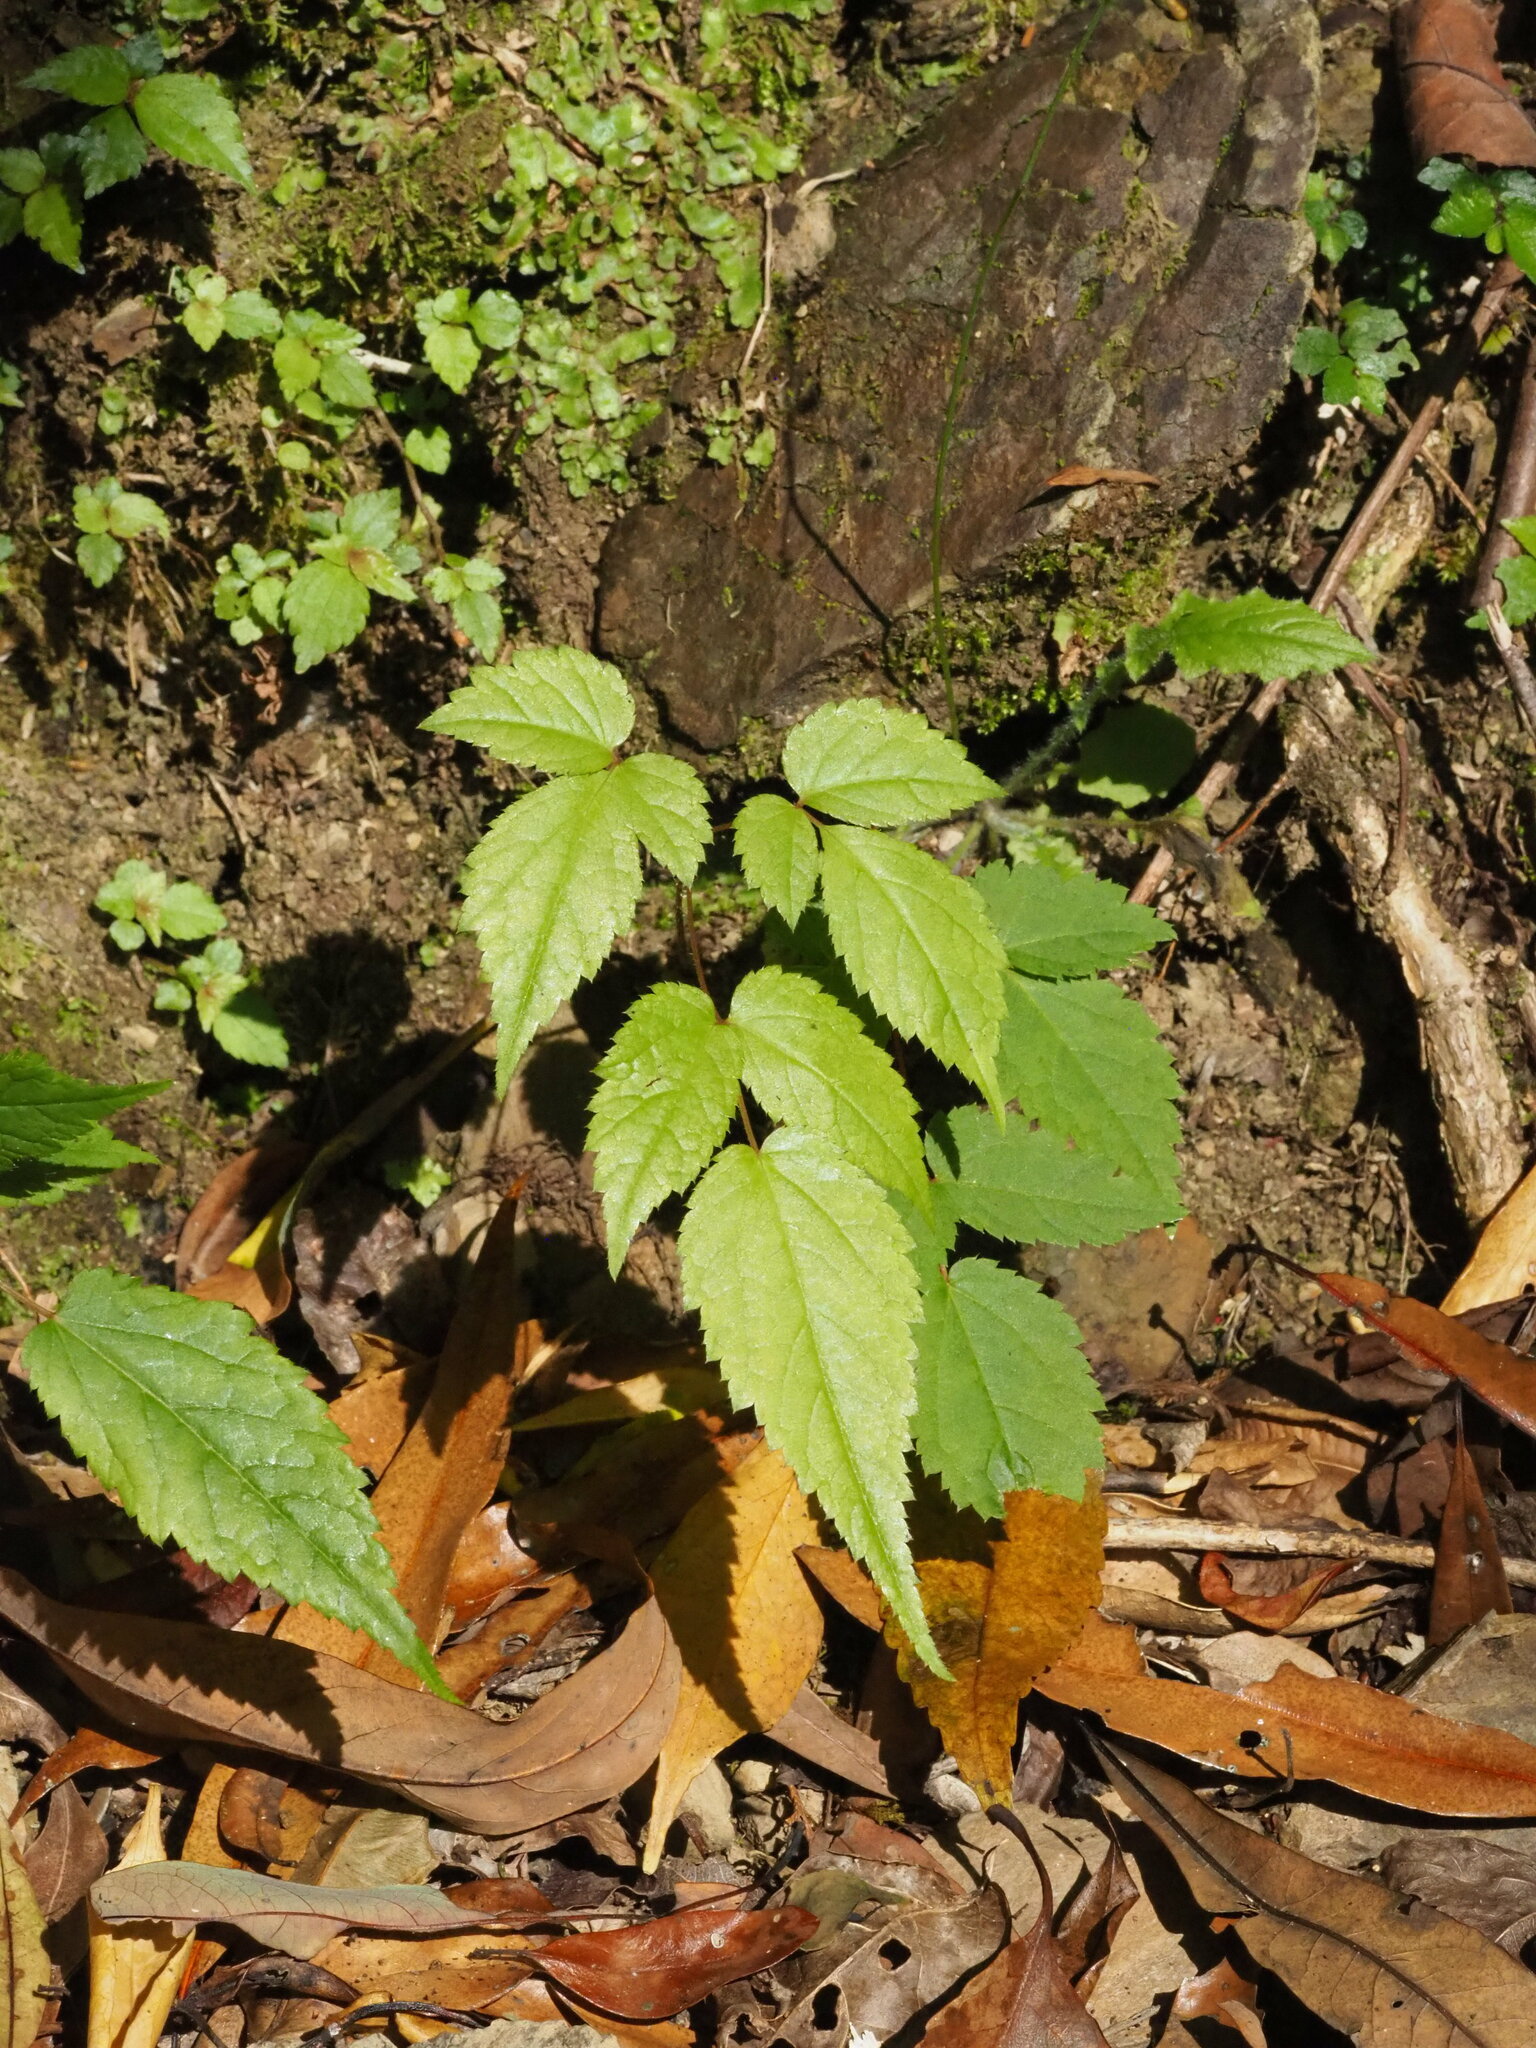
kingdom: Plantae
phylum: Tracheophyta
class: Magnoliopsida
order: Saxifragales
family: Saxifragaceae
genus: Astilbe
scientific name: Astilbe longicarpa
